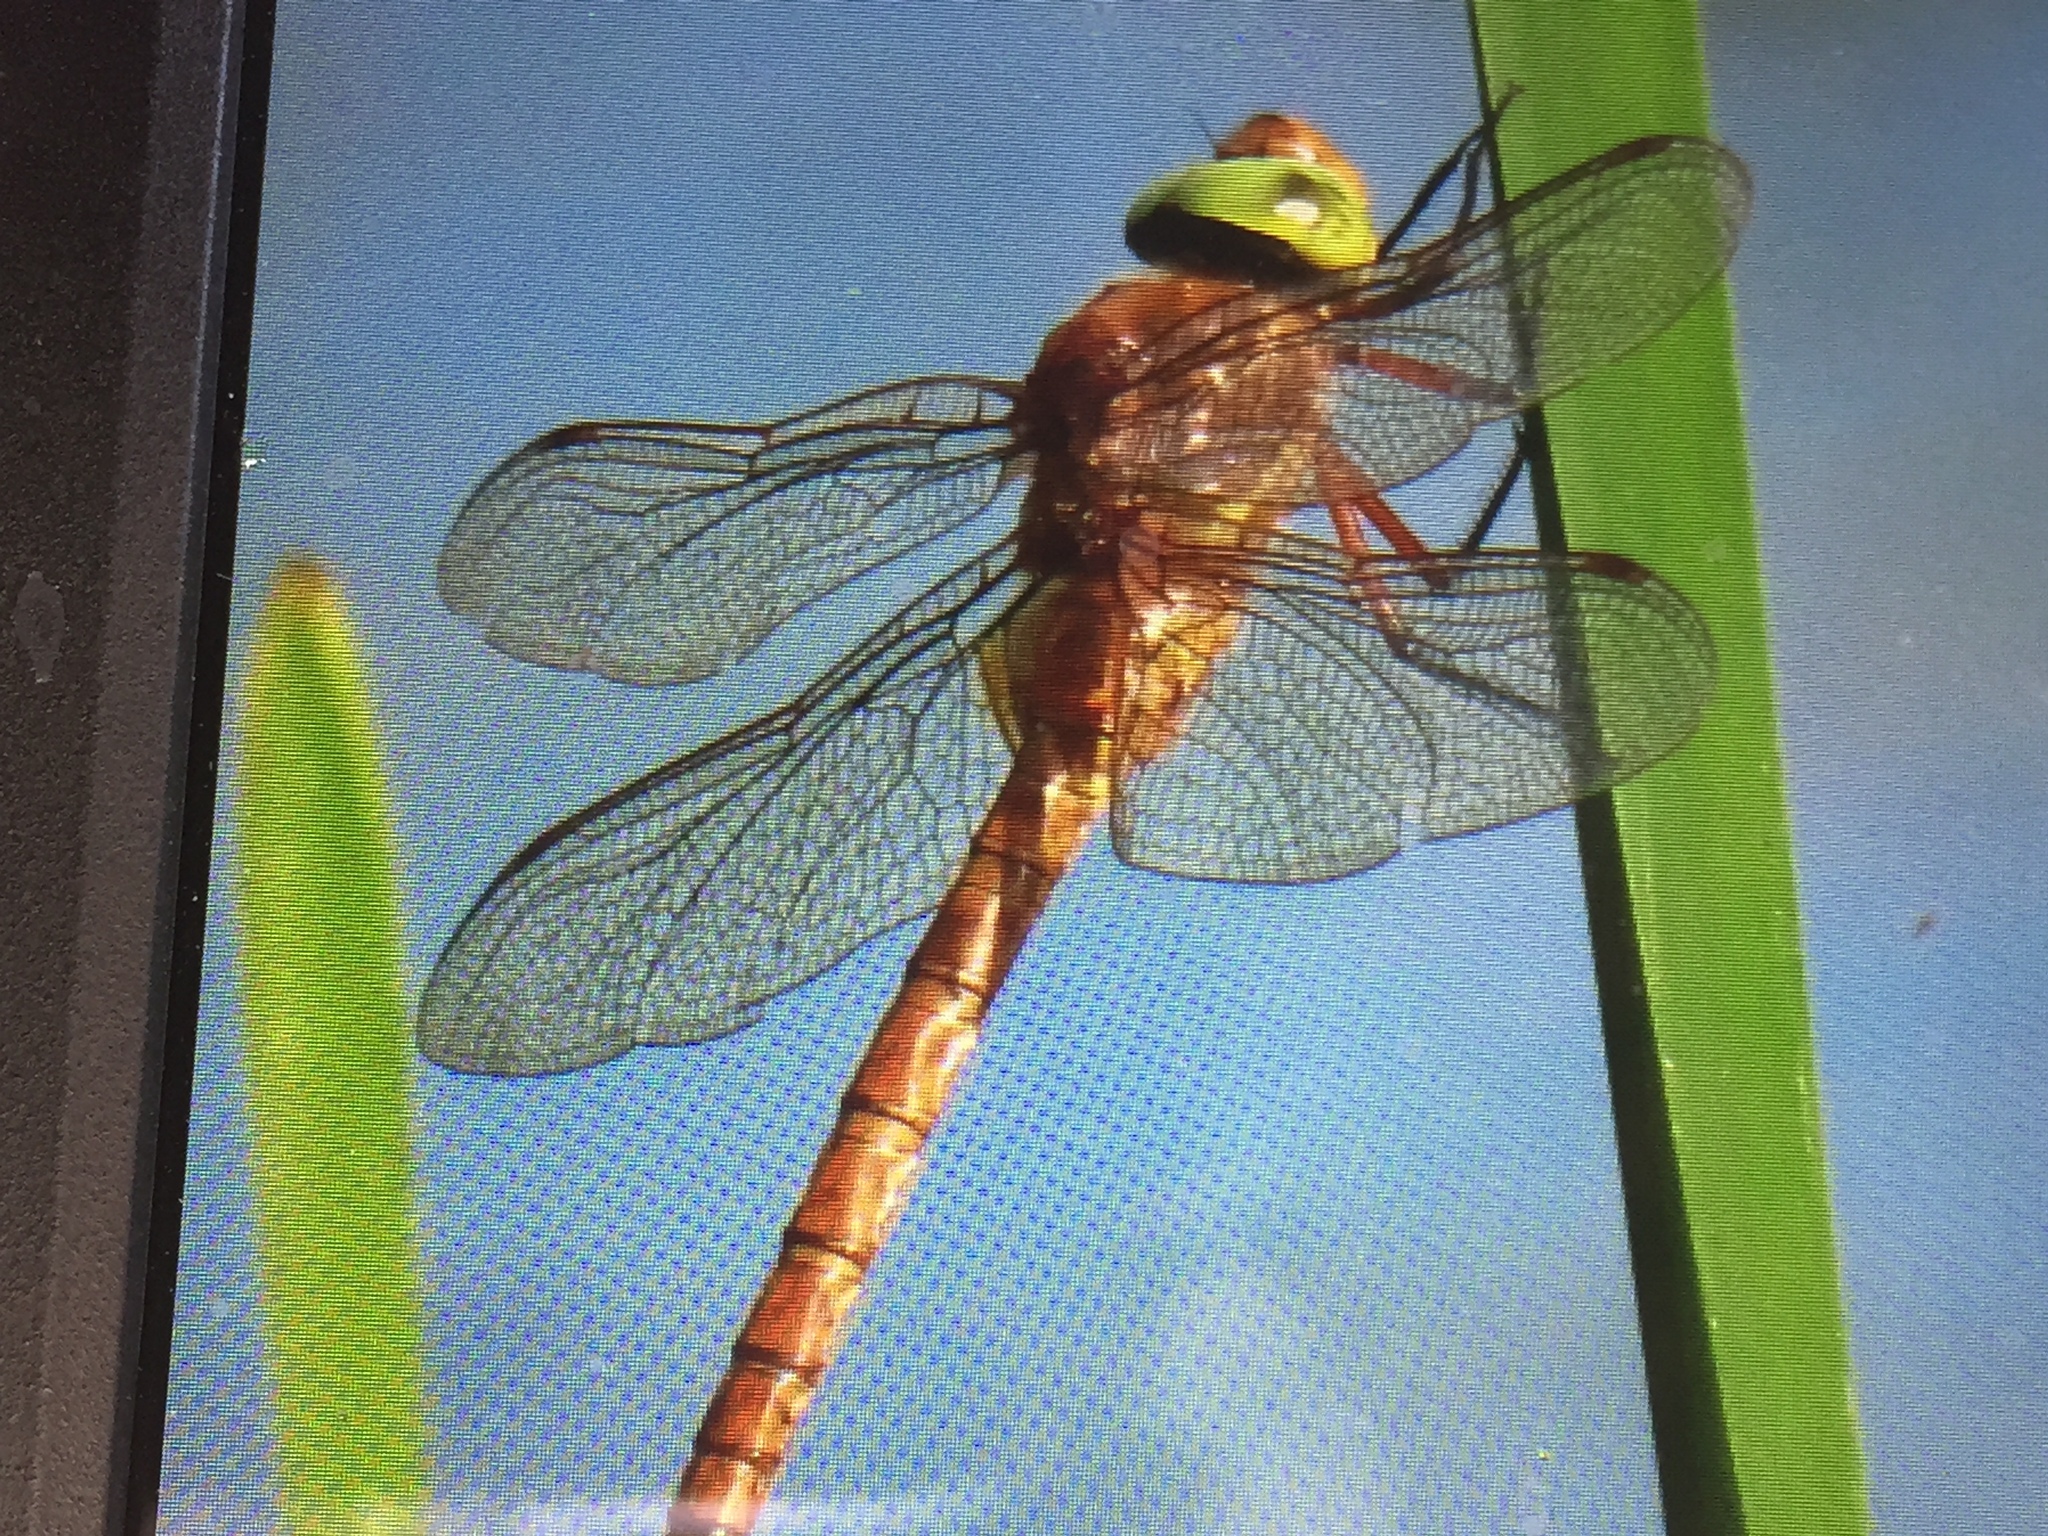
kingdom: Animalia
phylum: Arthropoda
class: Insecta
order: Odonata
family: Aeshnidae
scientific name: Aeshnidae
